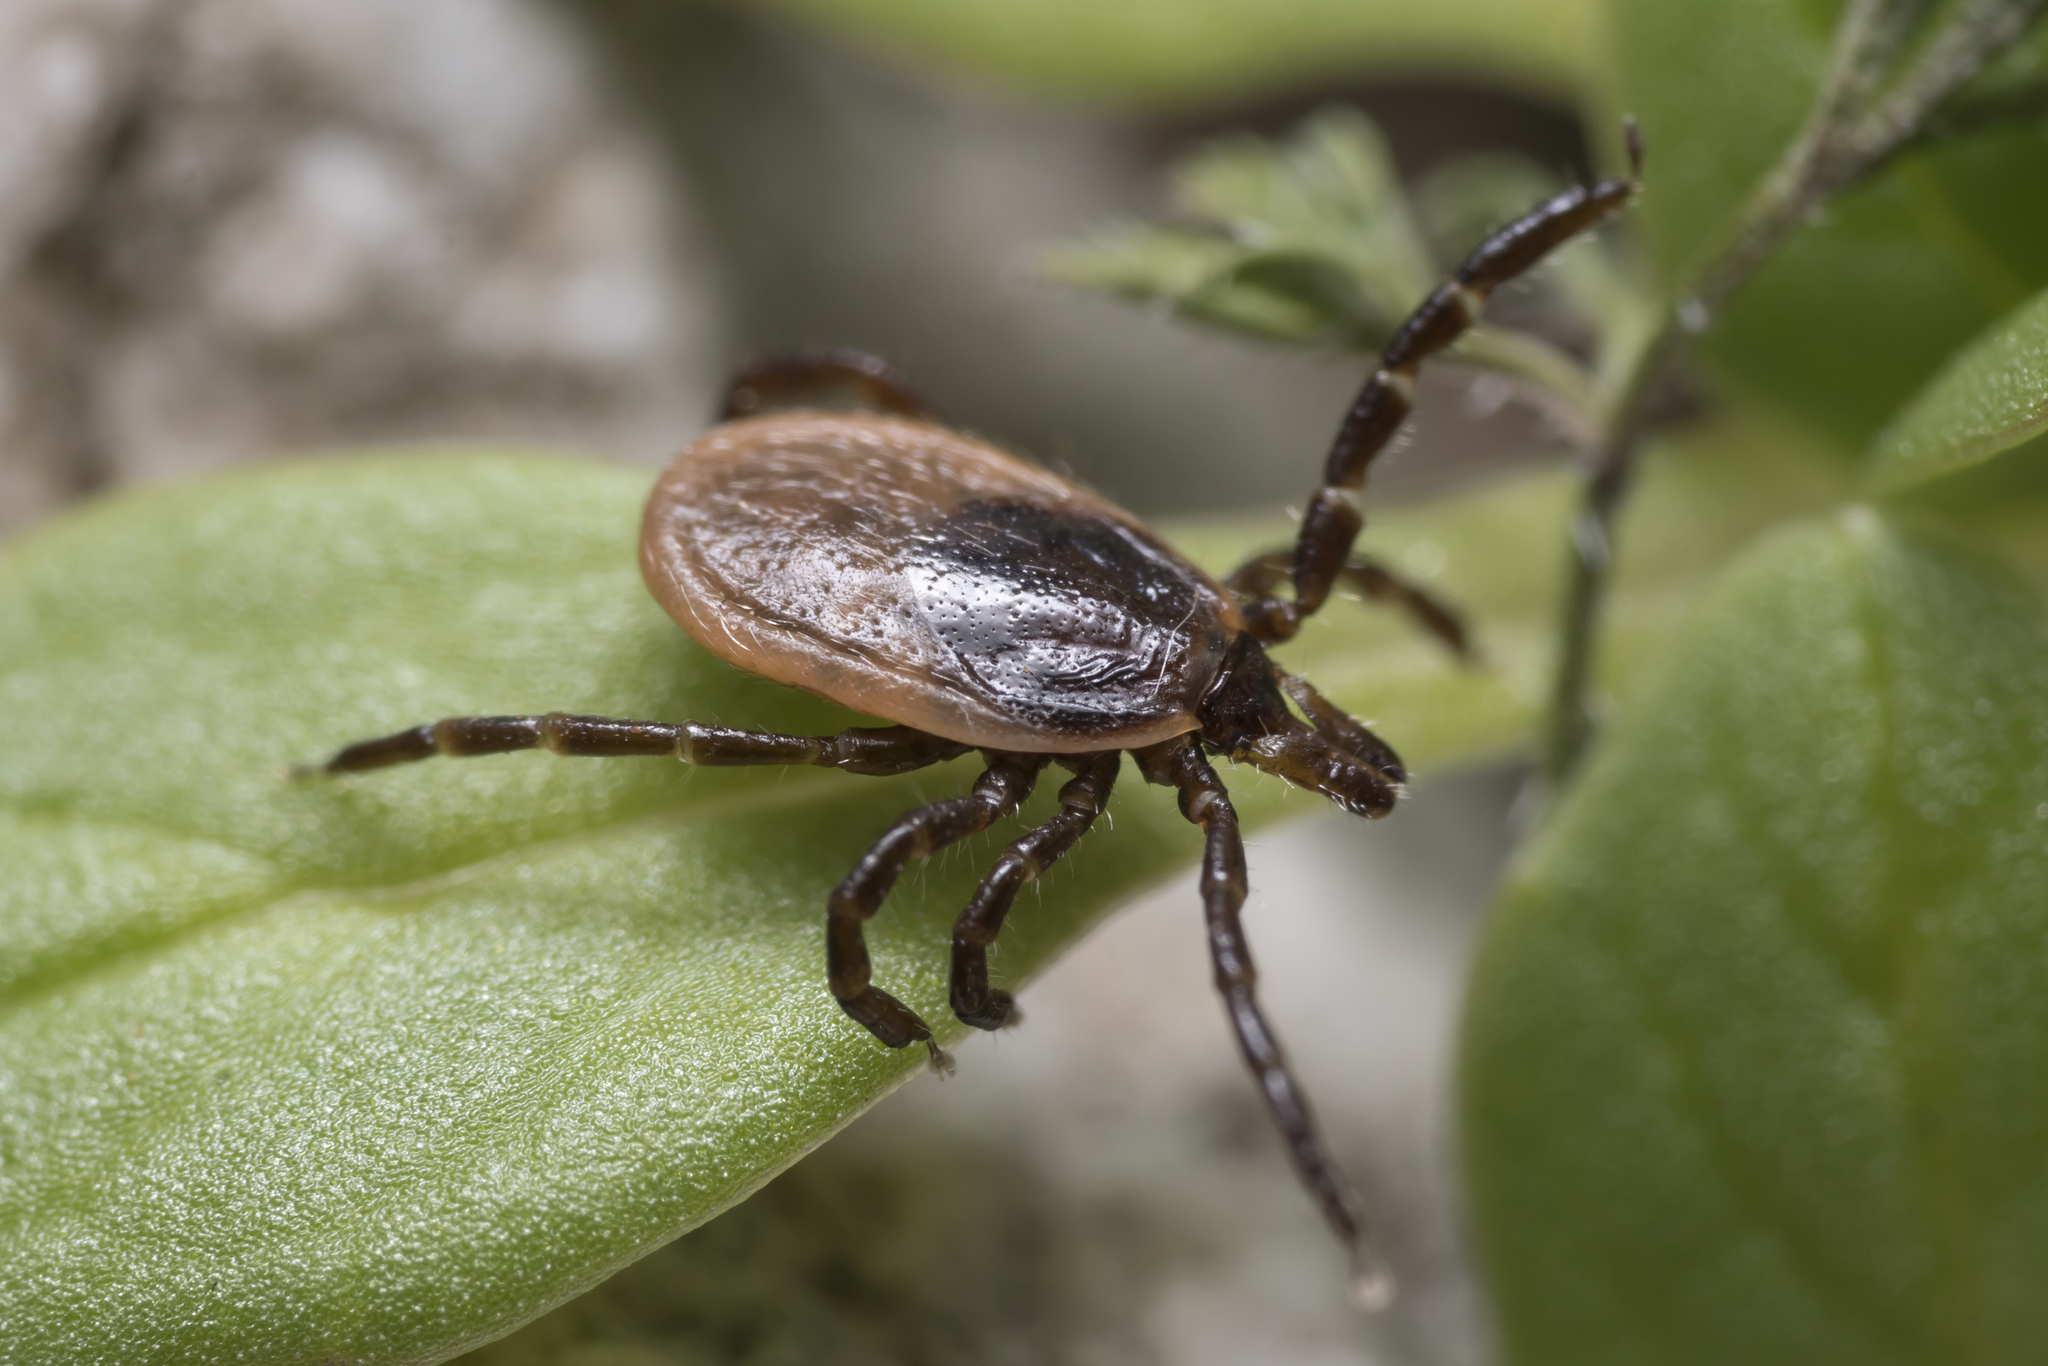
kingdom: Animalia
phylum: Arthropoda
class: Arachnida
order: Ixodida
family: Ixodidae
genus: Ixodes
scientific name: Ixodes ricinus
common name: Castor bean tick
